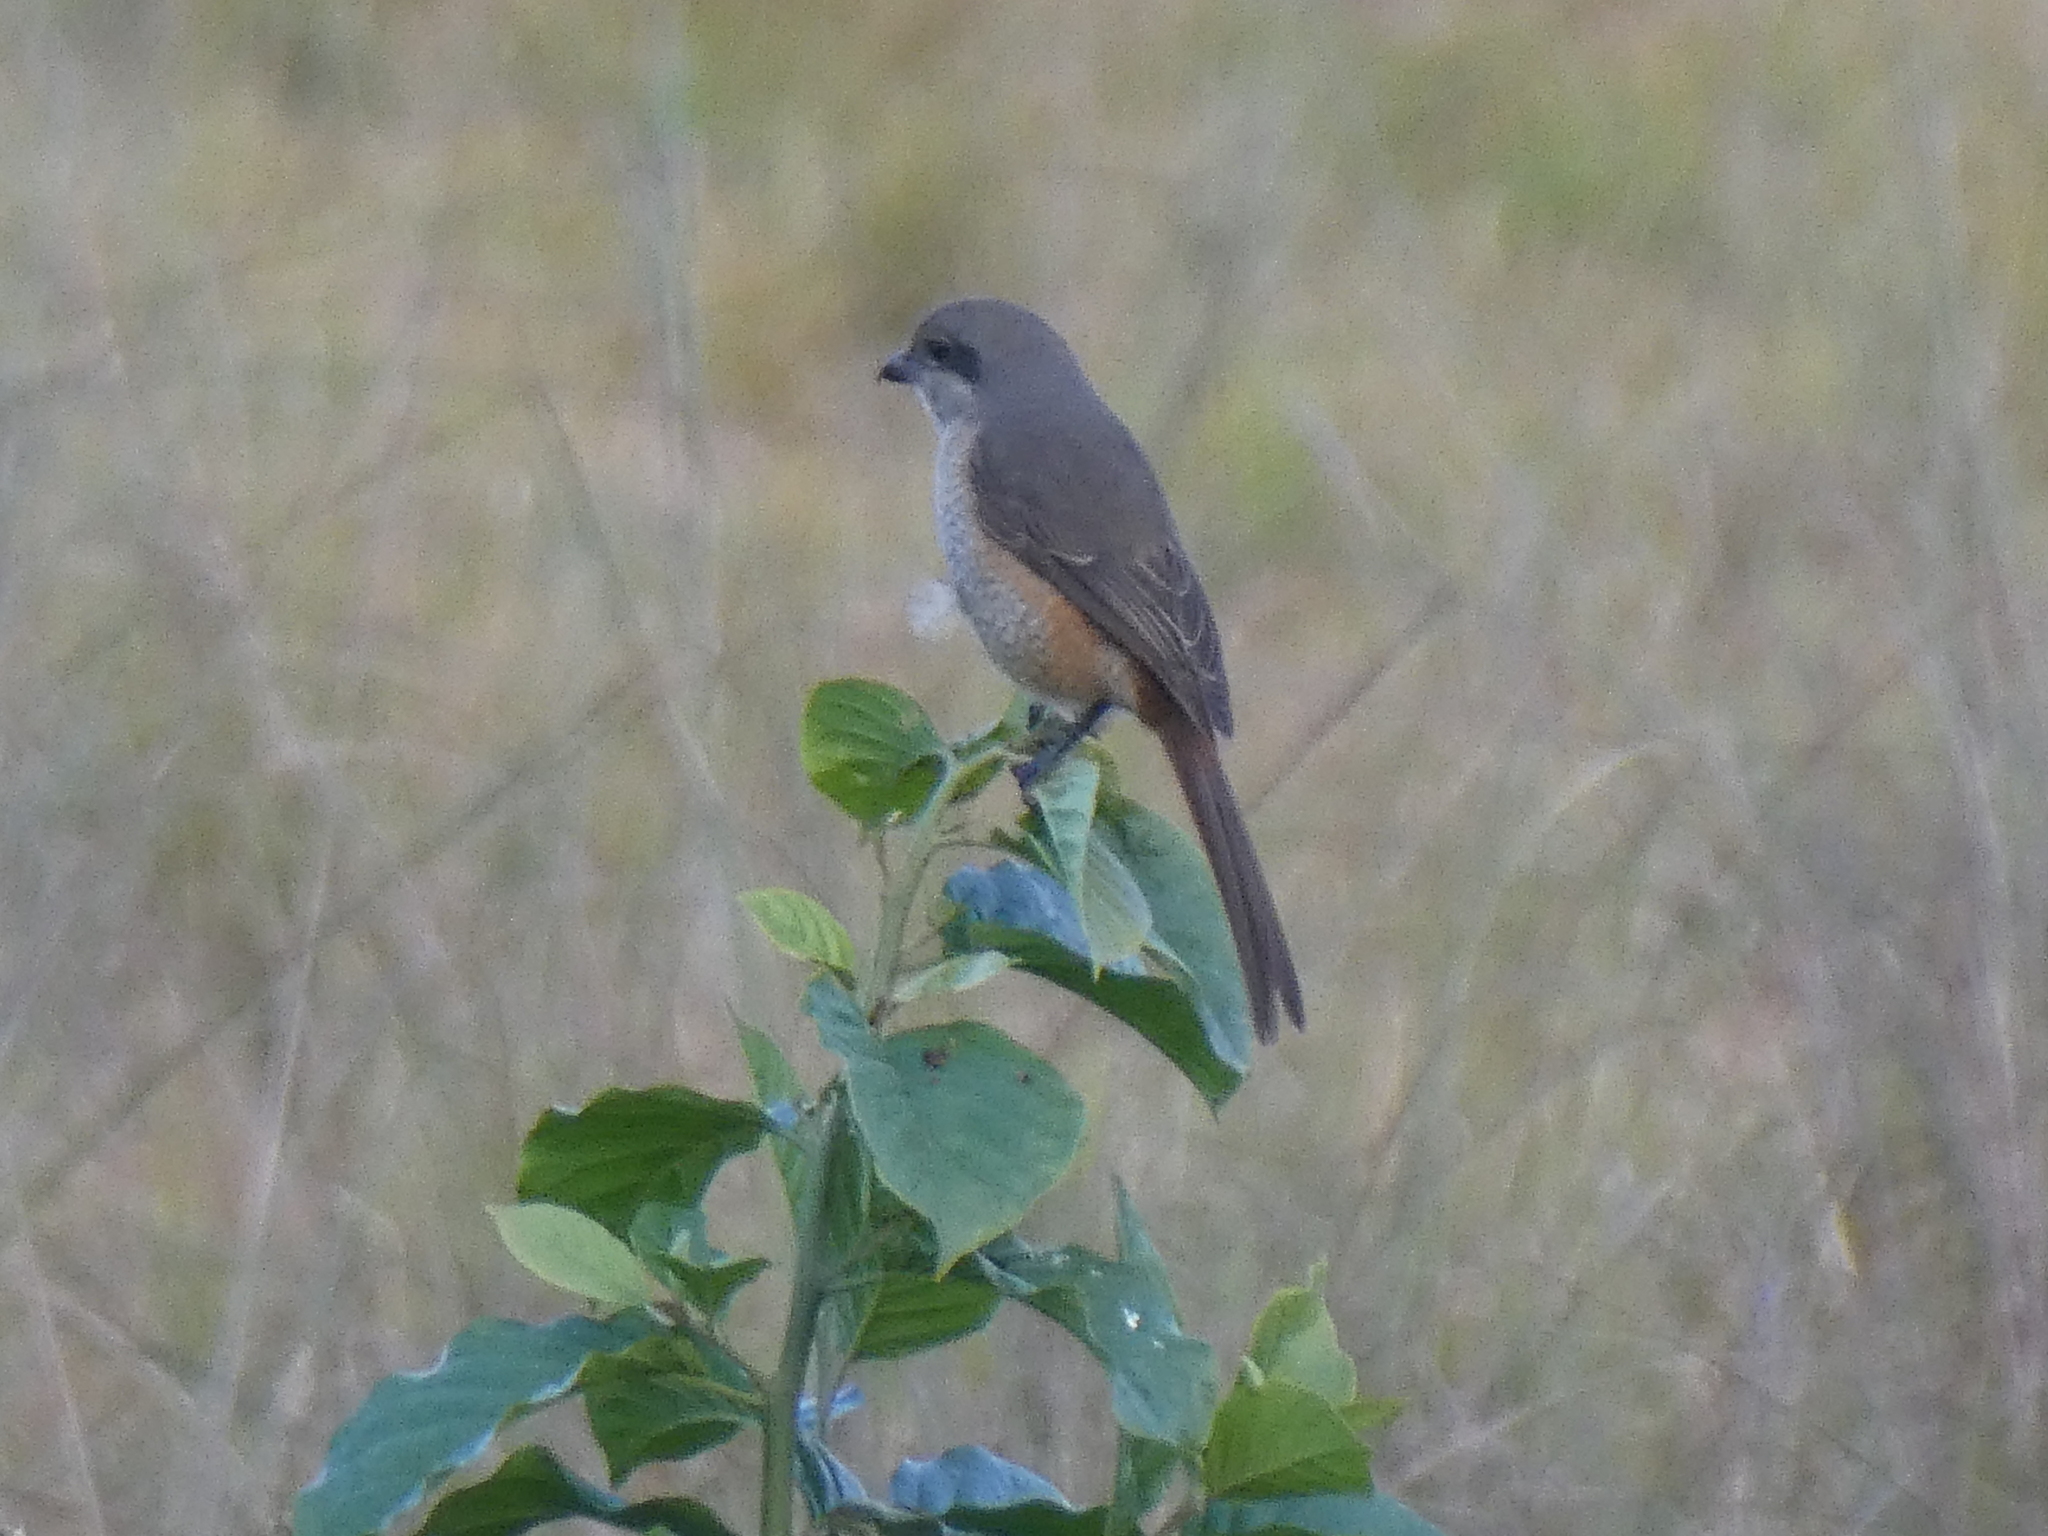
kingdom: Animalia
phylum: Chordata
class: Aves
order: Passeriformes
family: Laniidae
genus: Lanius
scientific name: Lanius tephronotus
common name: Grey-backed shrike
